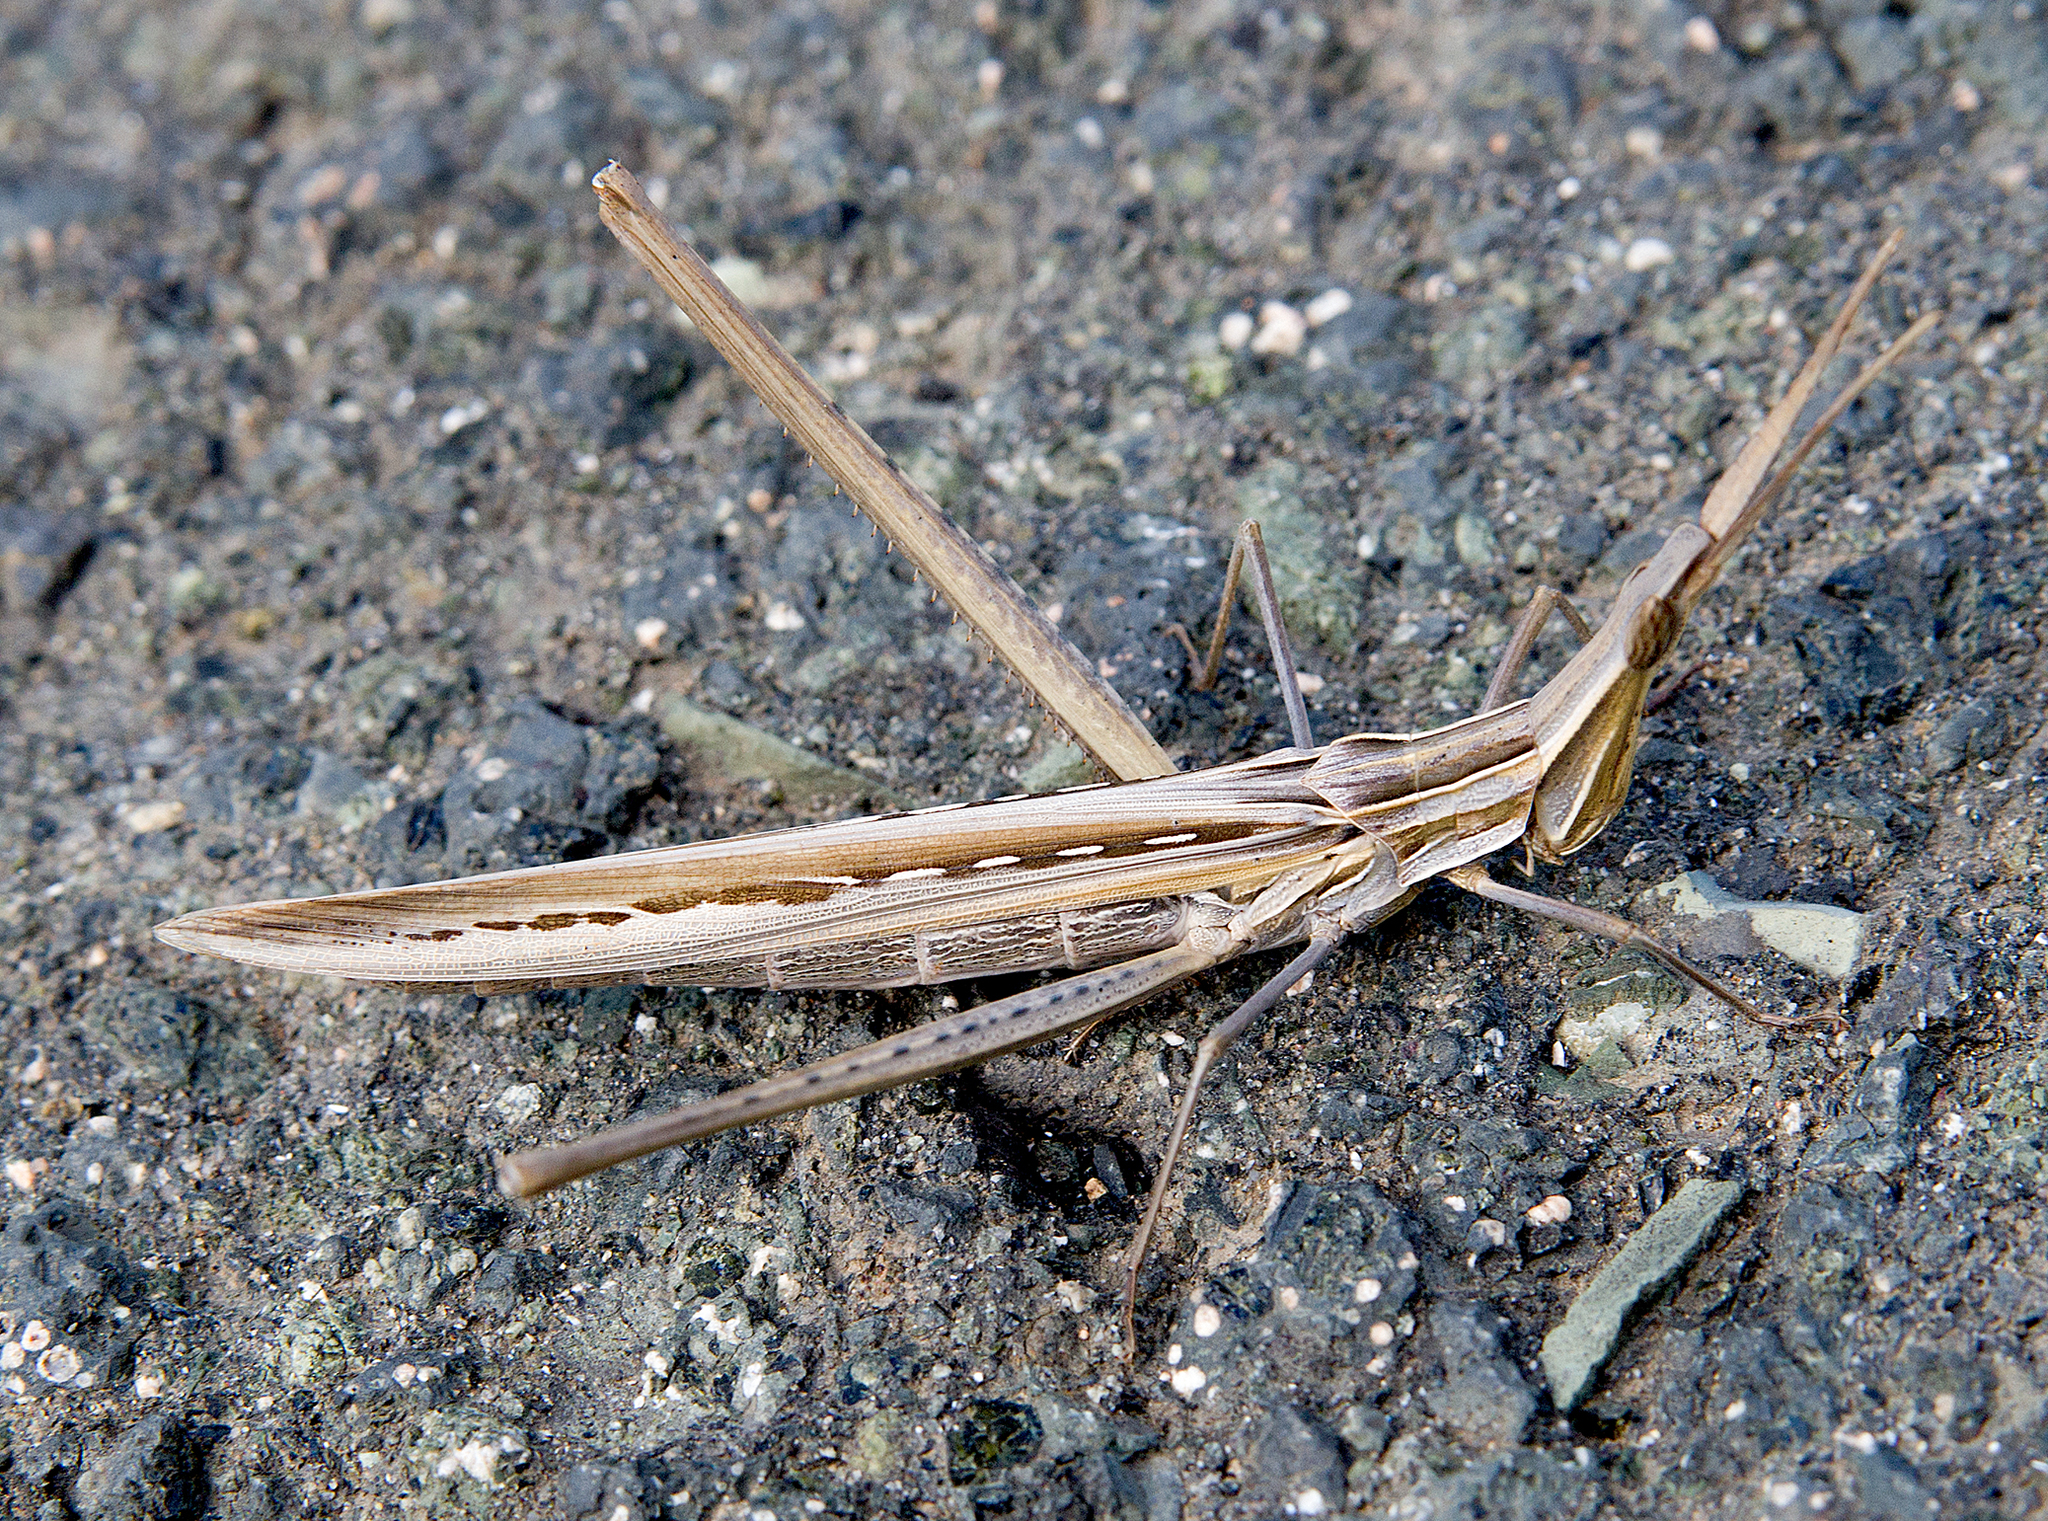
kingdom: Animalia
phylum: Arthropoda
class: Insecta
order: Orthoptera
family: Acrididae
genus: Acrida
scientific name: Acrida ungarica
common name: Common cone-headed grasshopper
